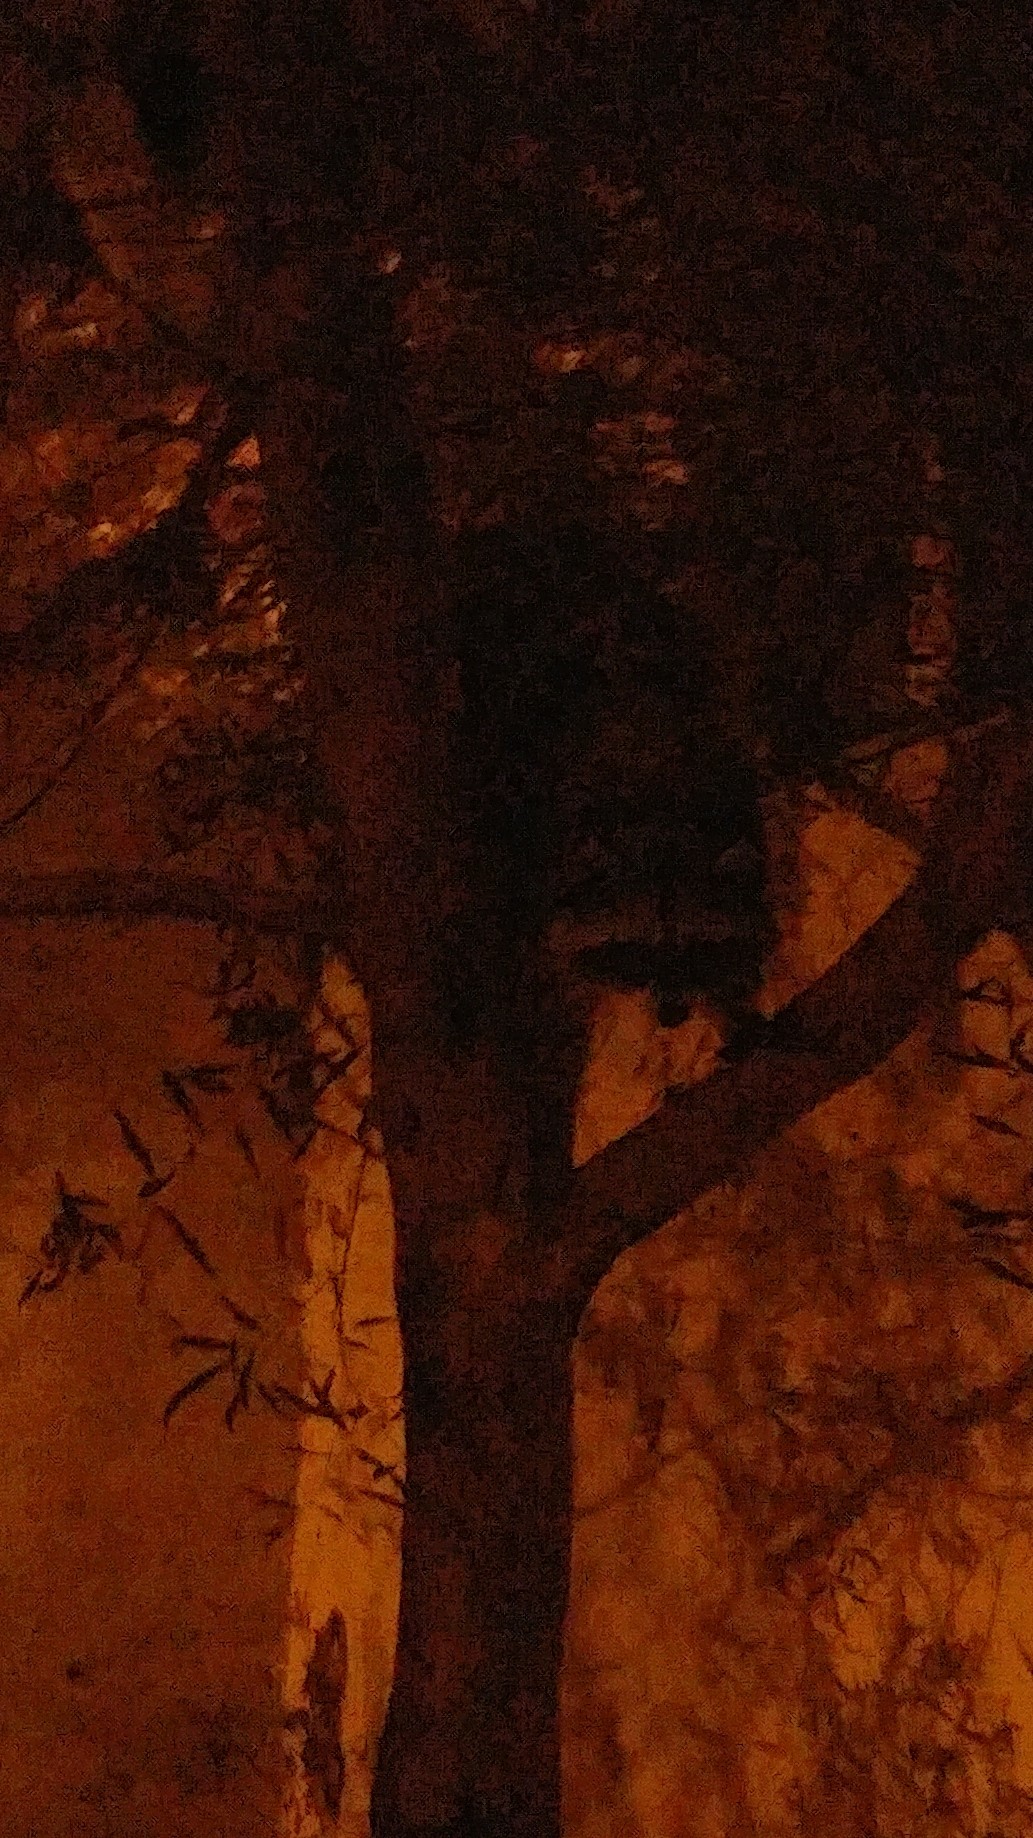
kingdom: Animalia
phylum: Chordata
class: Mammalia
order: Carnivora
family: Procyonidae
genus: Procyon
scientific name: Procyon lotor
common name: Raccoon
